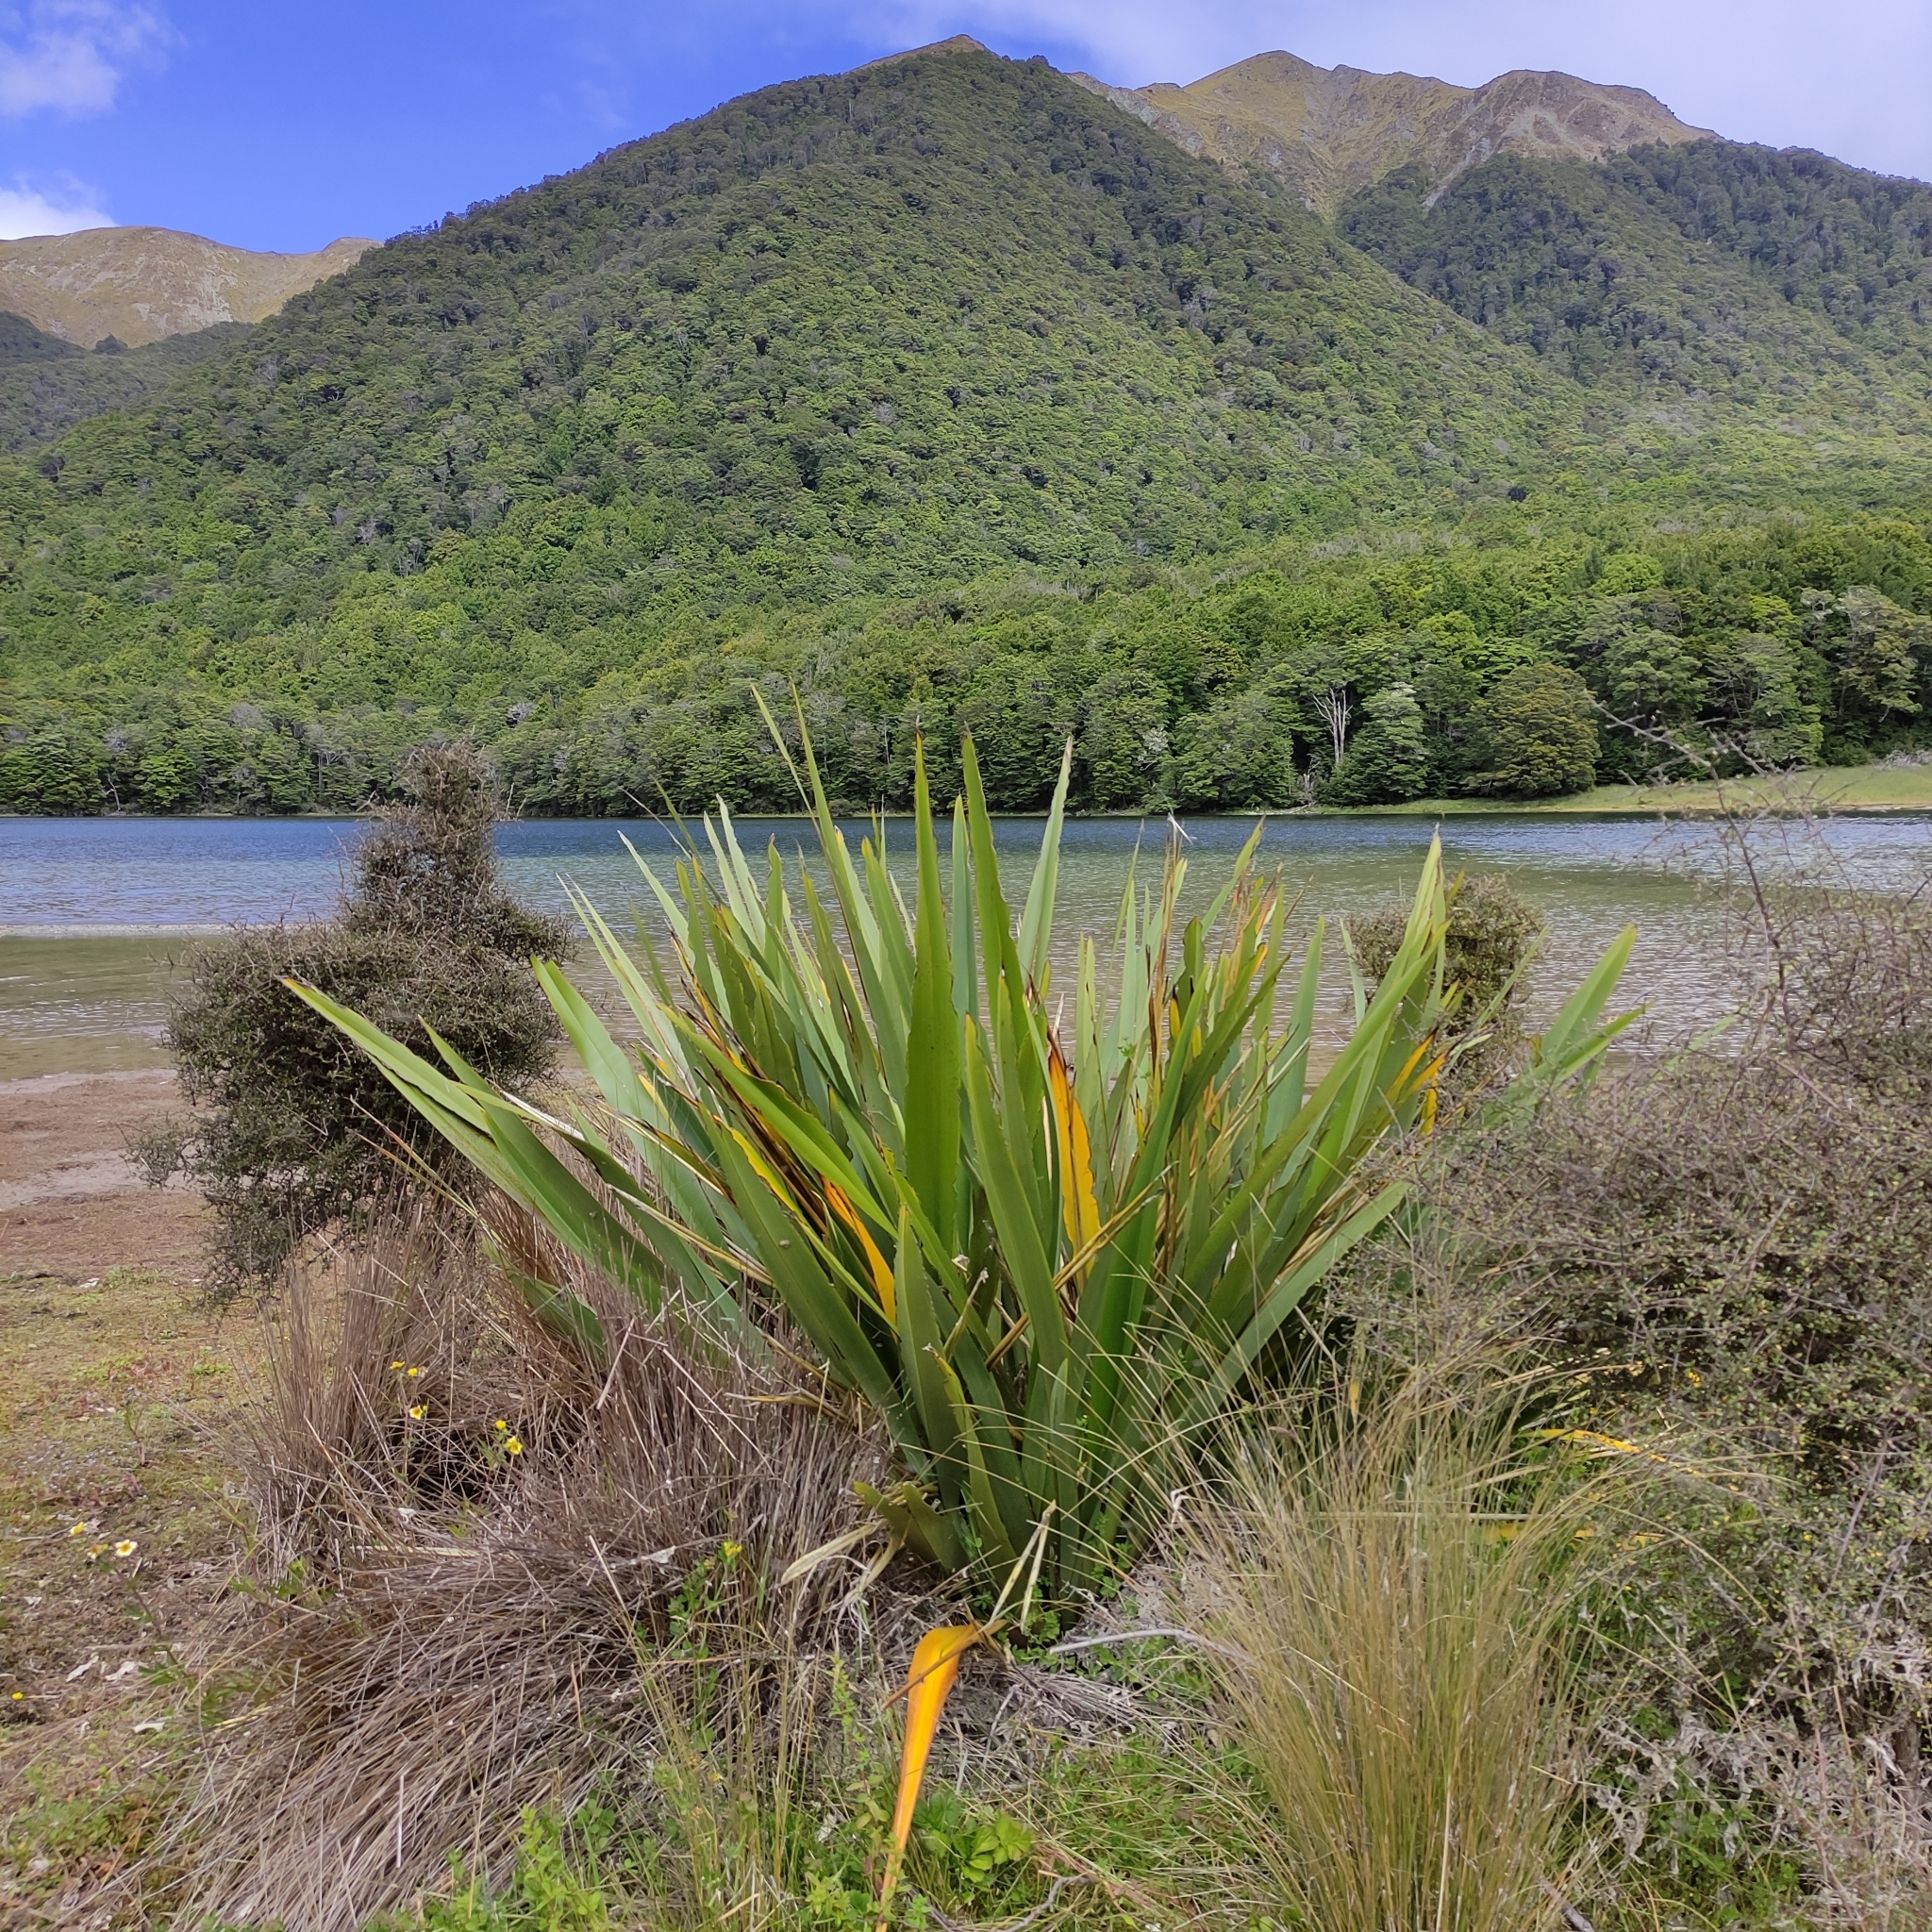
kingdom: Plantae
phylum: Tracheophyta
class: Liliopsida
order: Asparagales
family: Asphodelaceae
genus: Phormium
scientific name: Phormium tenax
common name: New zealand flax
